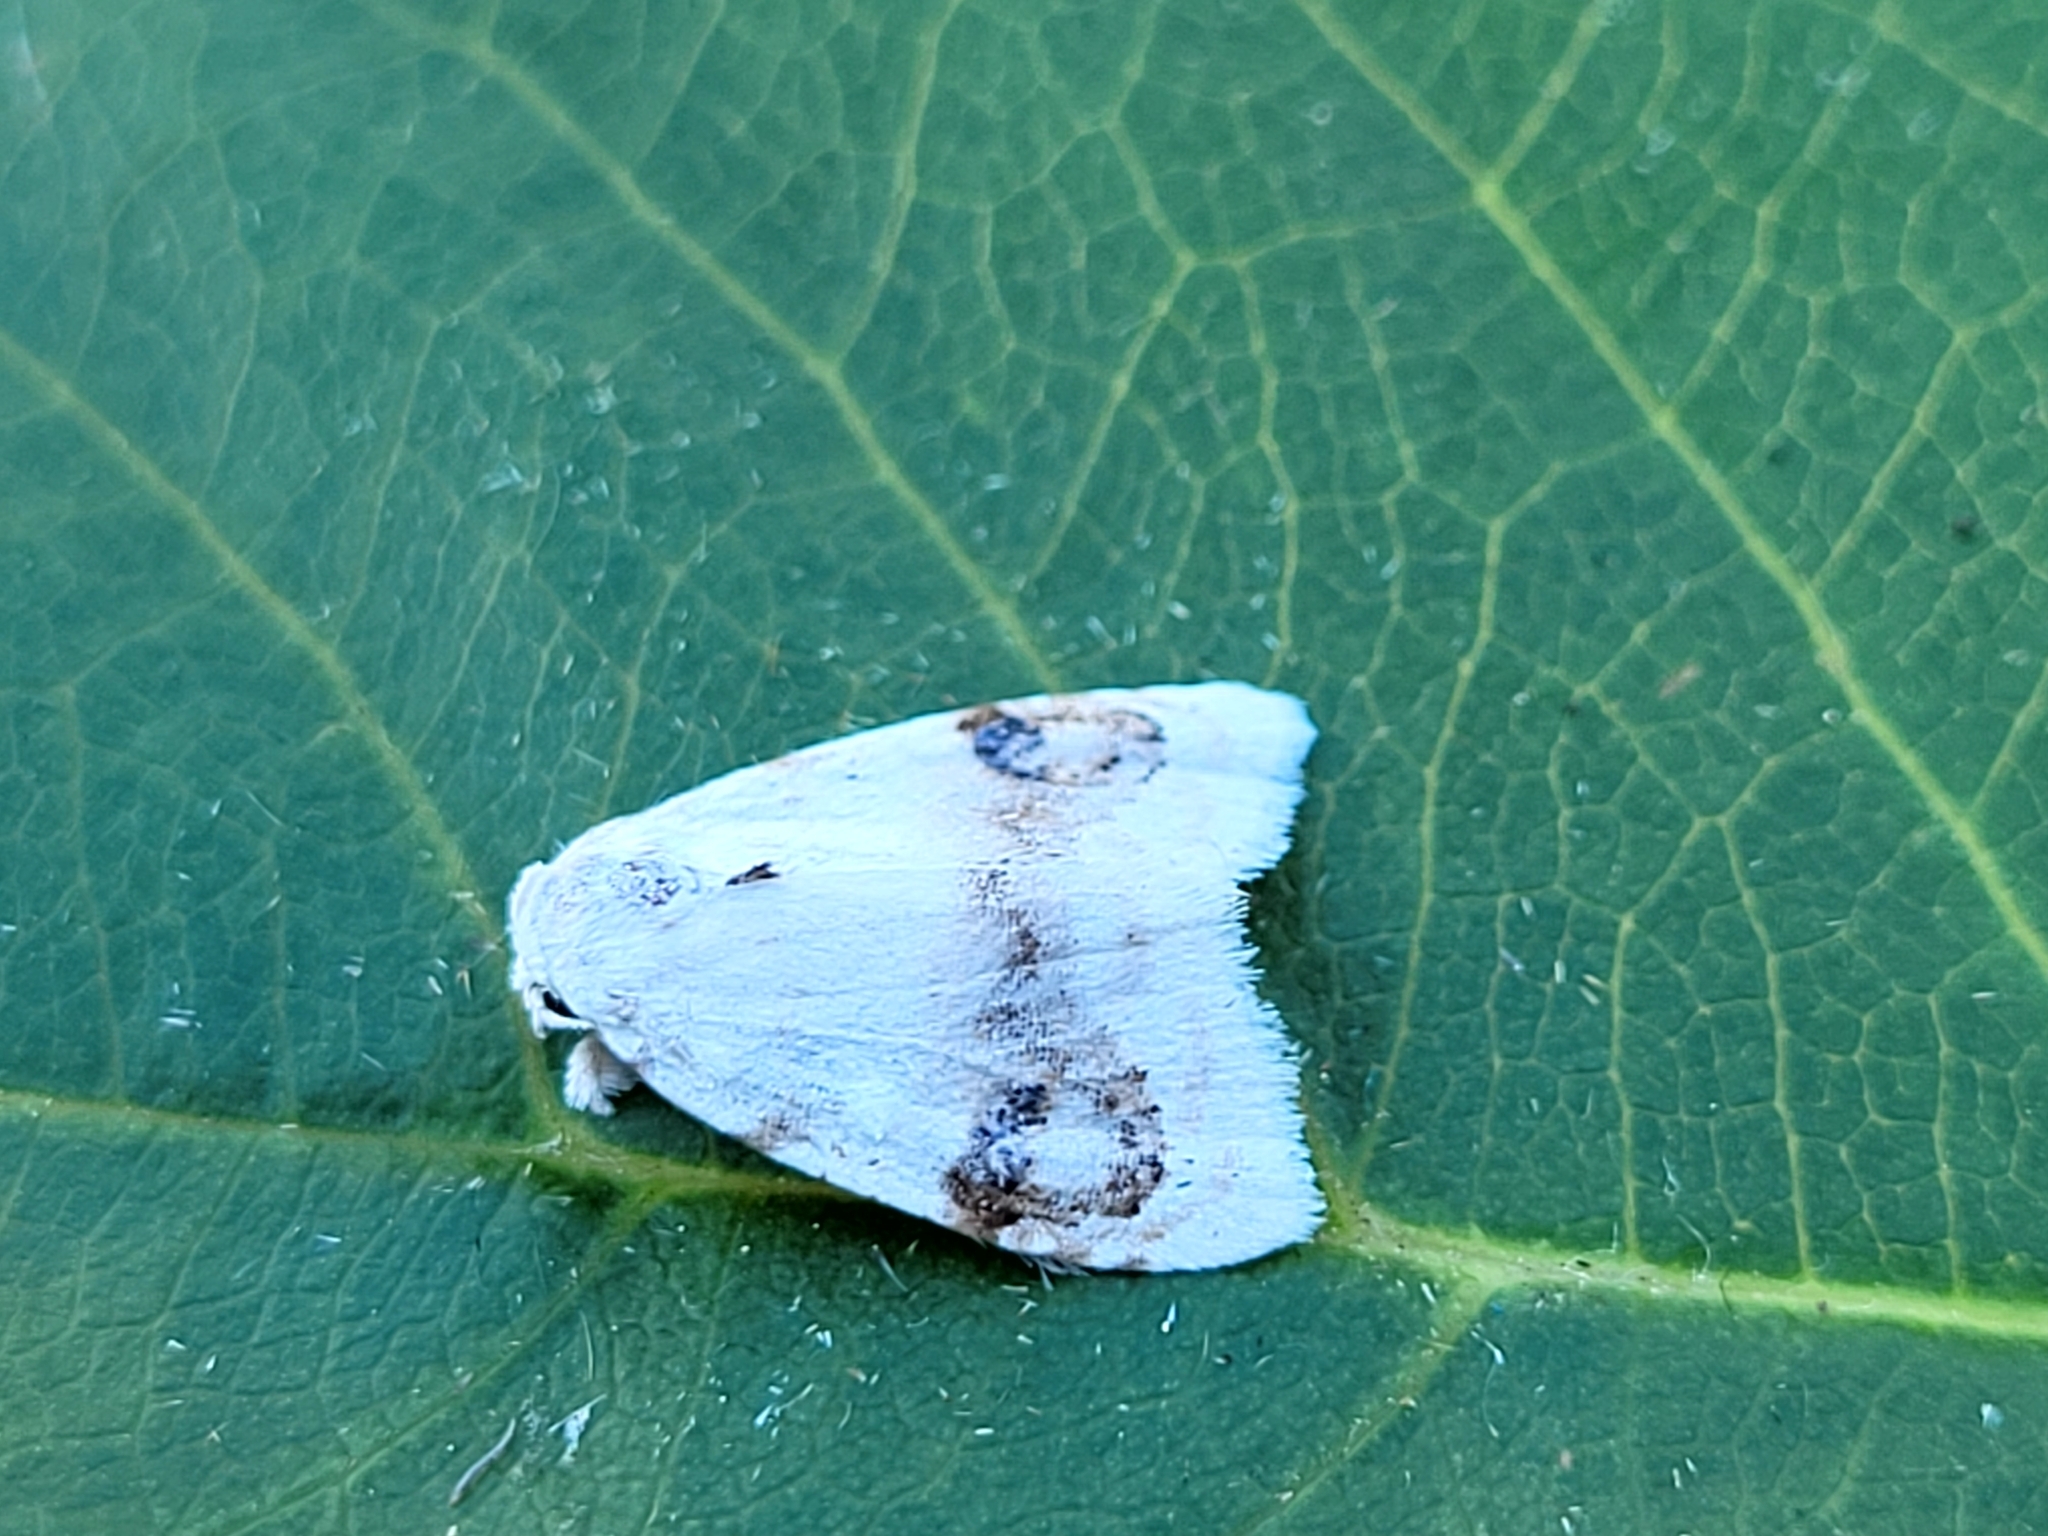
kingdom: Animalia
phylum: Arthropoda
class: Insecta
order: Lepidoptera
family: Nolidae
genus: Nola
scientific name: Nola cilicoides
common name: Blurry-patched nola moth
